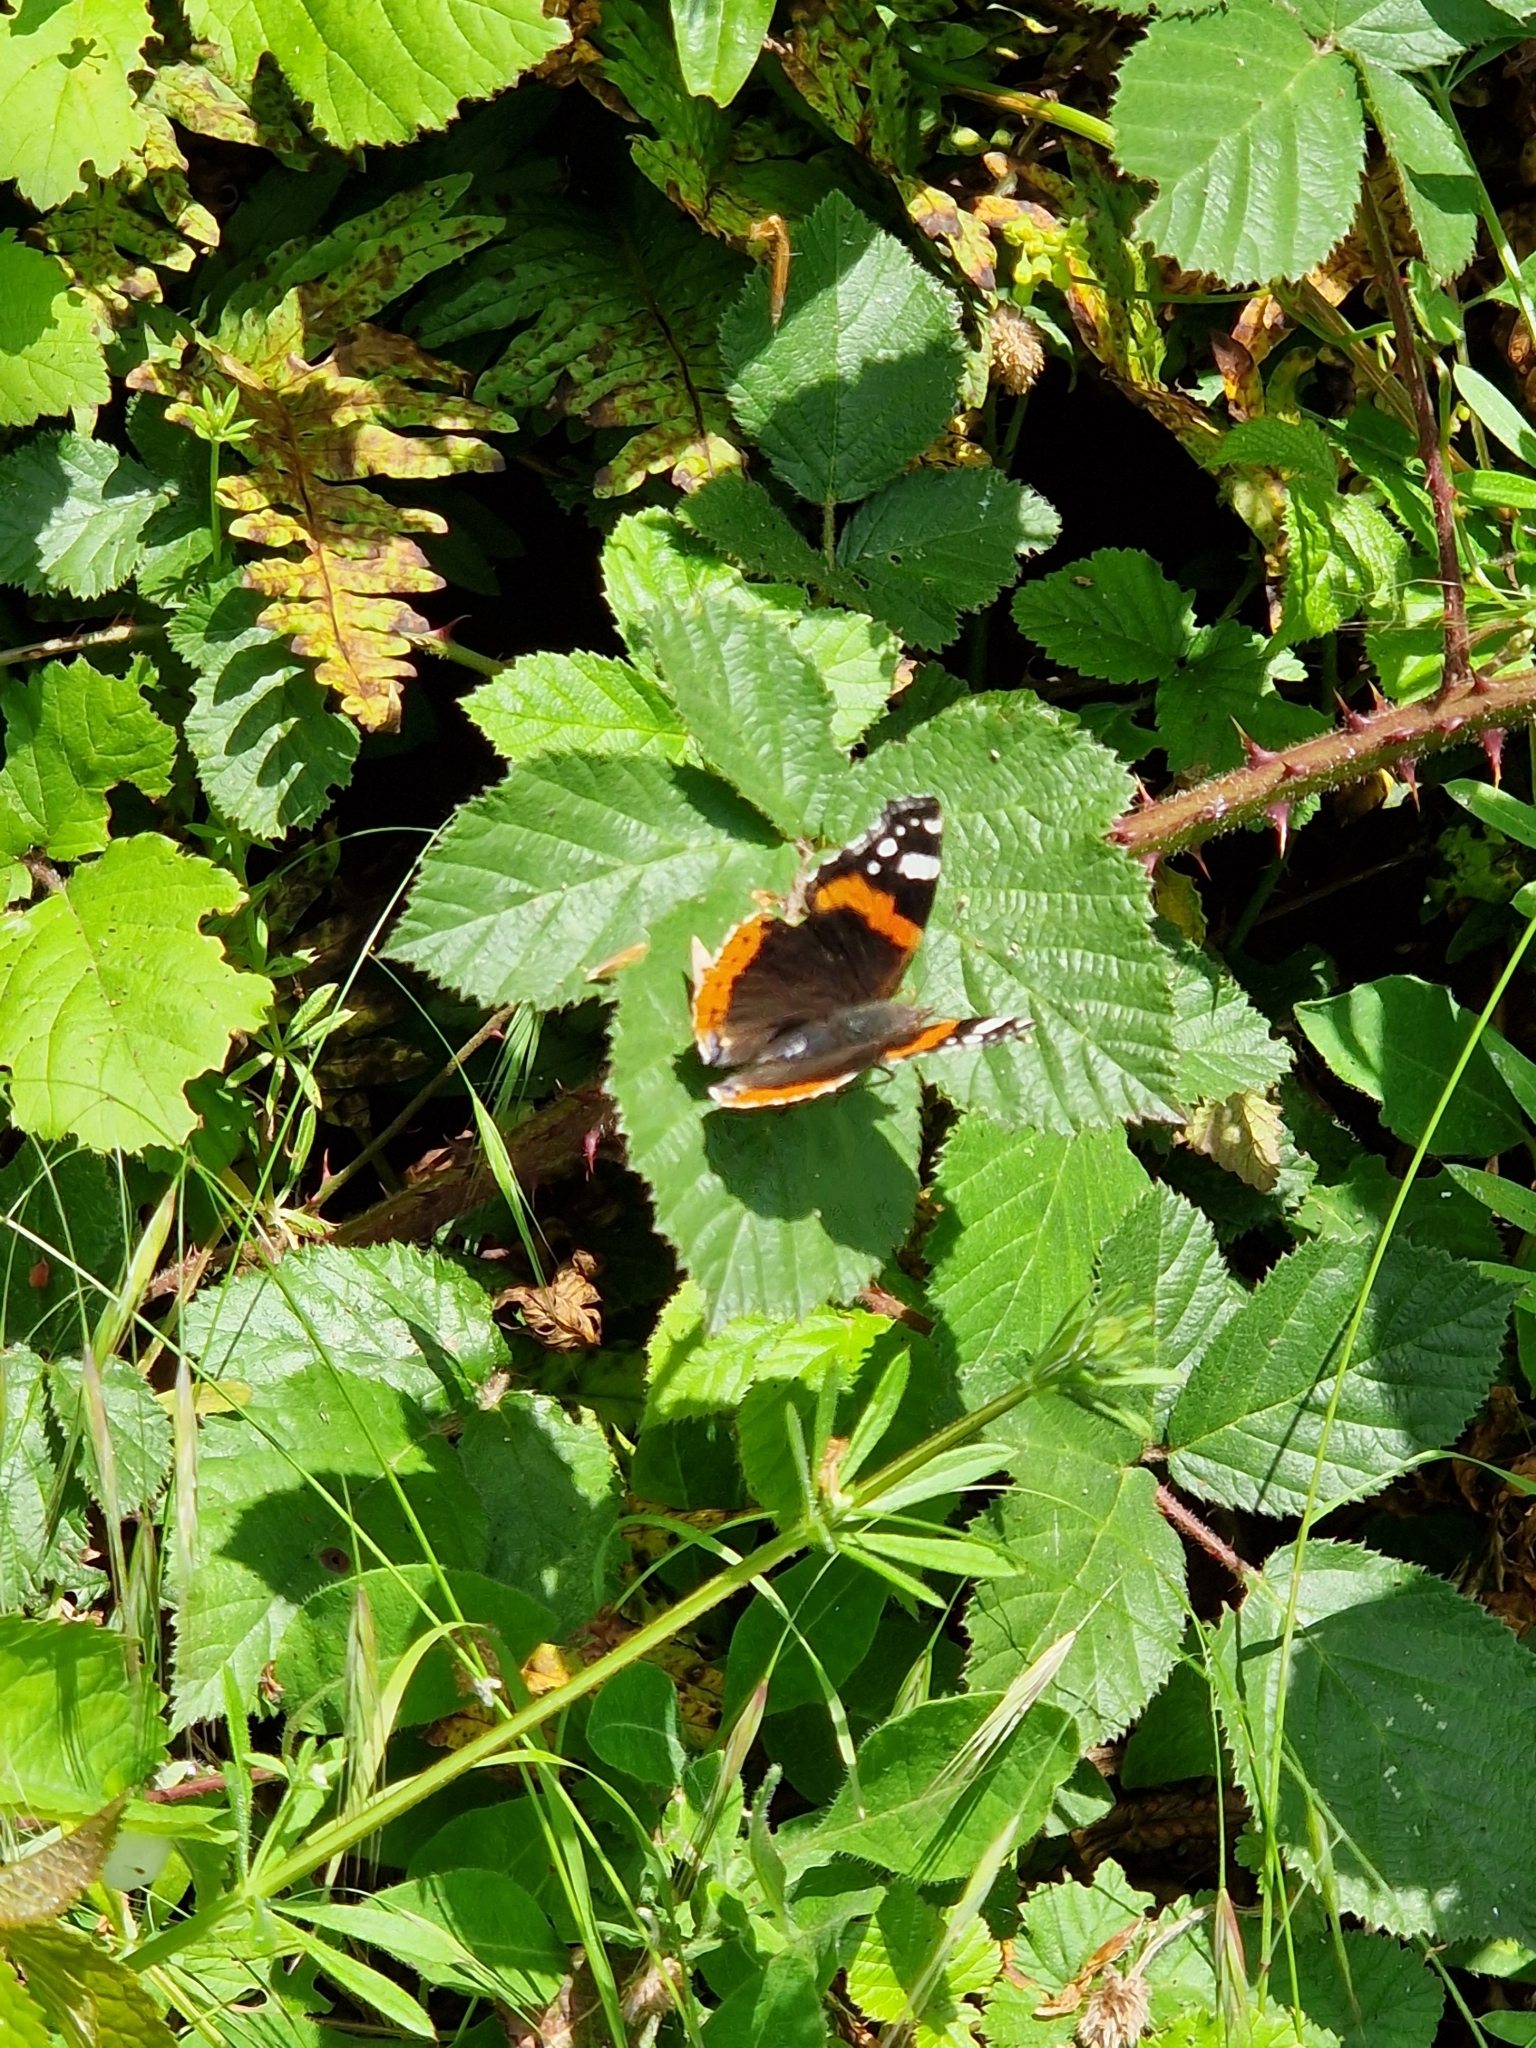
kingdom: Animalia
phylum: Arthropoda
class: Insecta
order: Lepidoptera
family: Nymphalidae
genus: Vanessa
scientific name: Vanessa atalanta
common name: Red admiral
